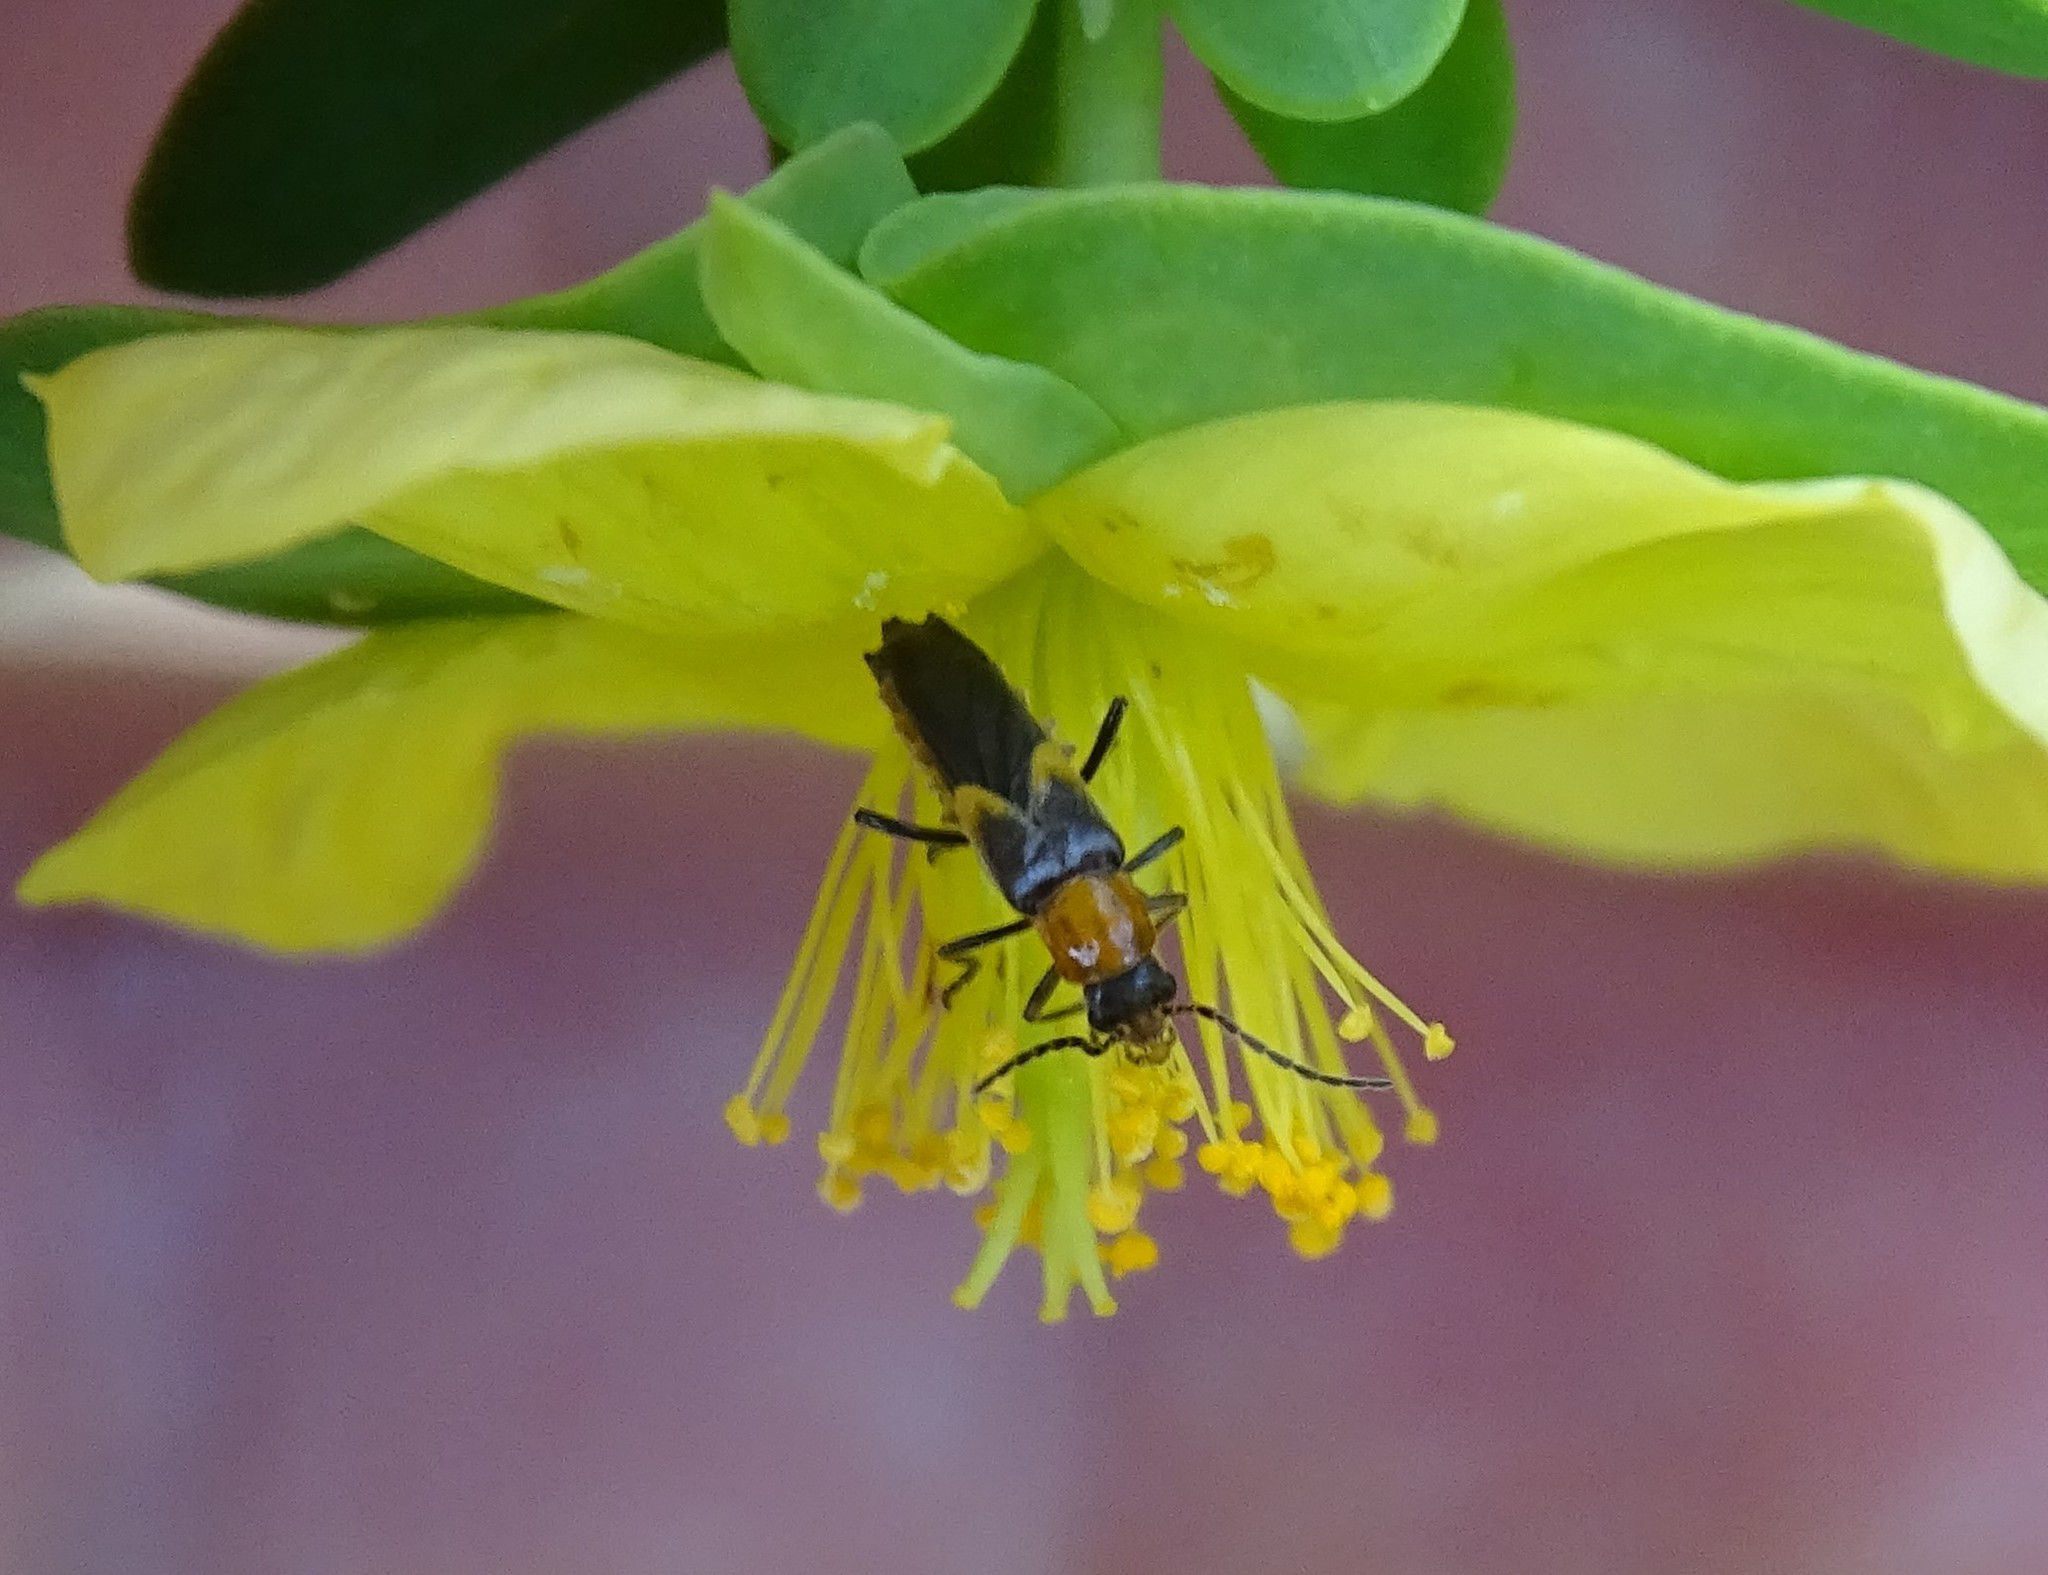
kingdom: Animalia
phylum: Arthropoda
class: Insecta
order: Coleoptera
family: Cantharidae
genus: Belotus
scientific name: Belotus abdominalis
